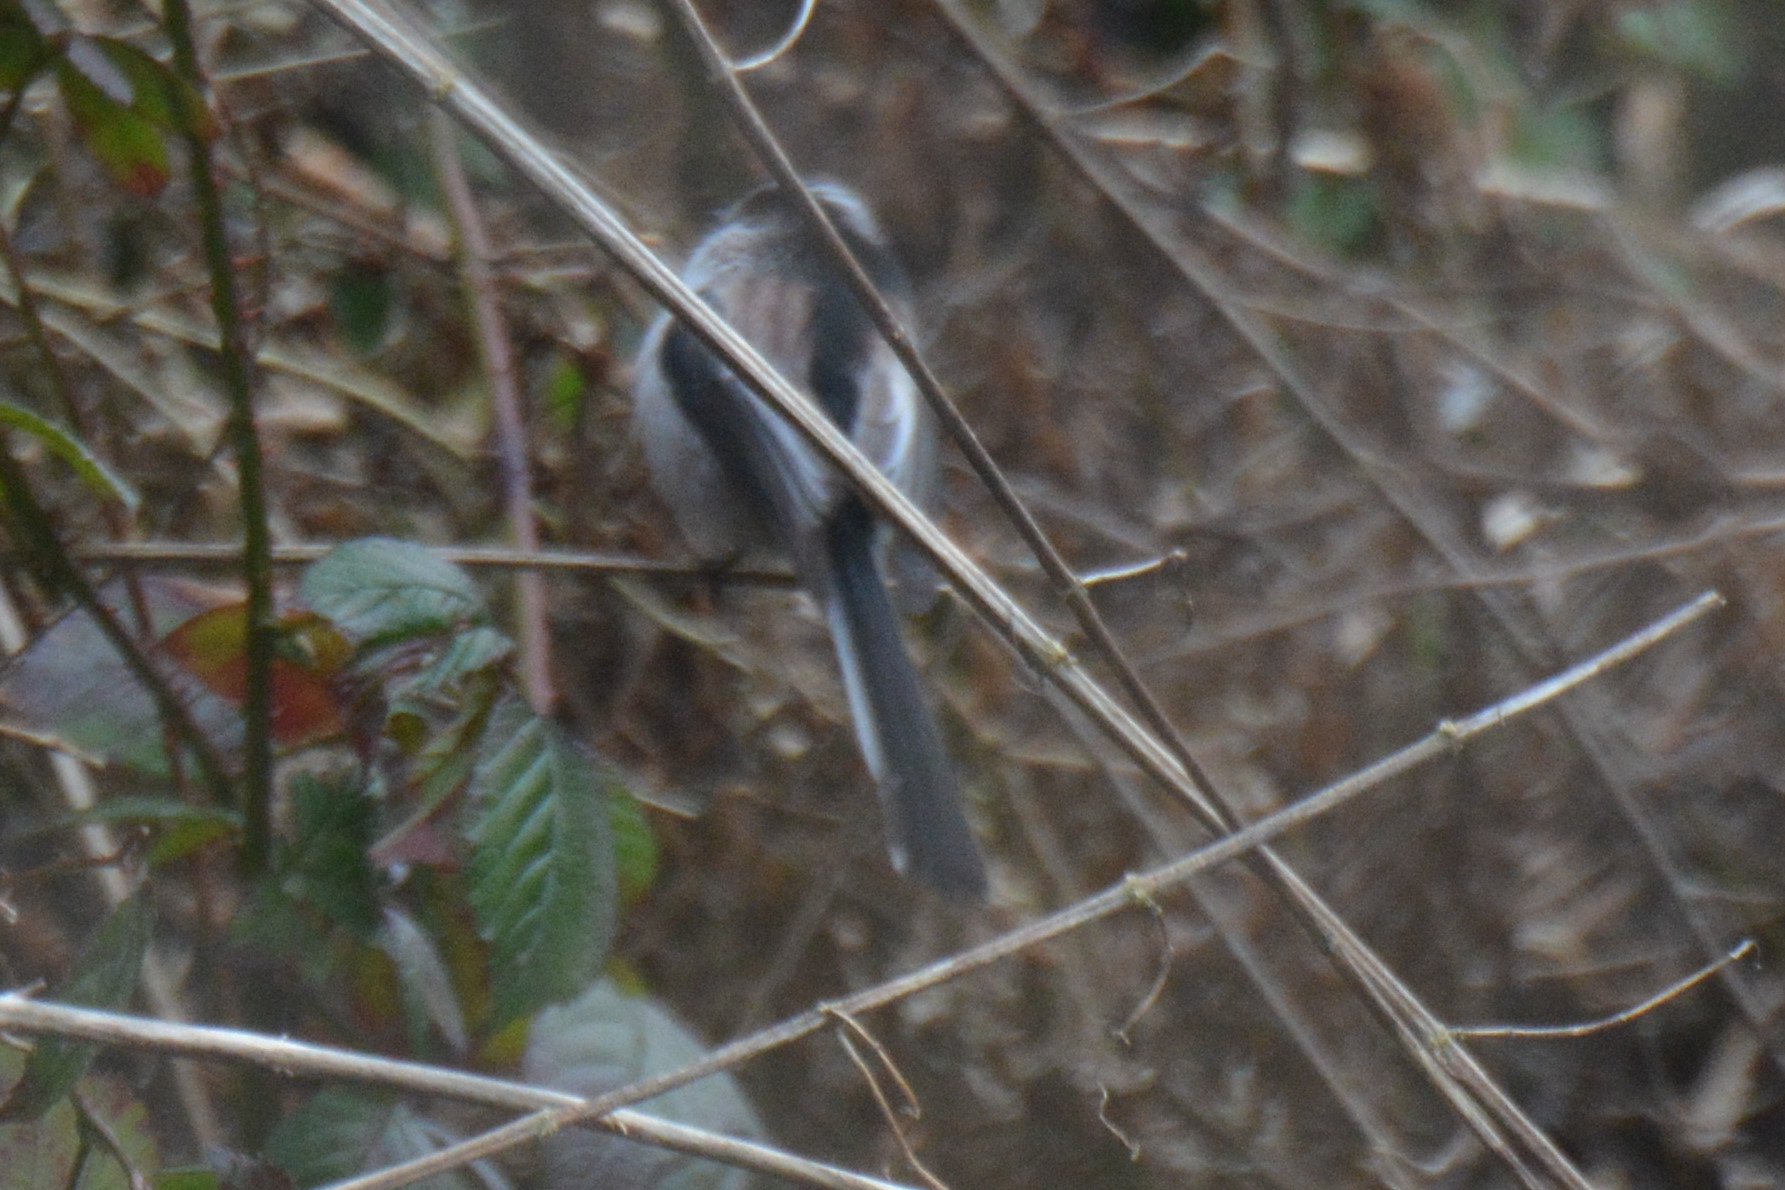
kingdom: Animalia
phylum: Chordata
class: Aves
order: Passeriformes
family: Aegithalidae
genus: Aegithalos
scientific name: Aegithalos caudatus
